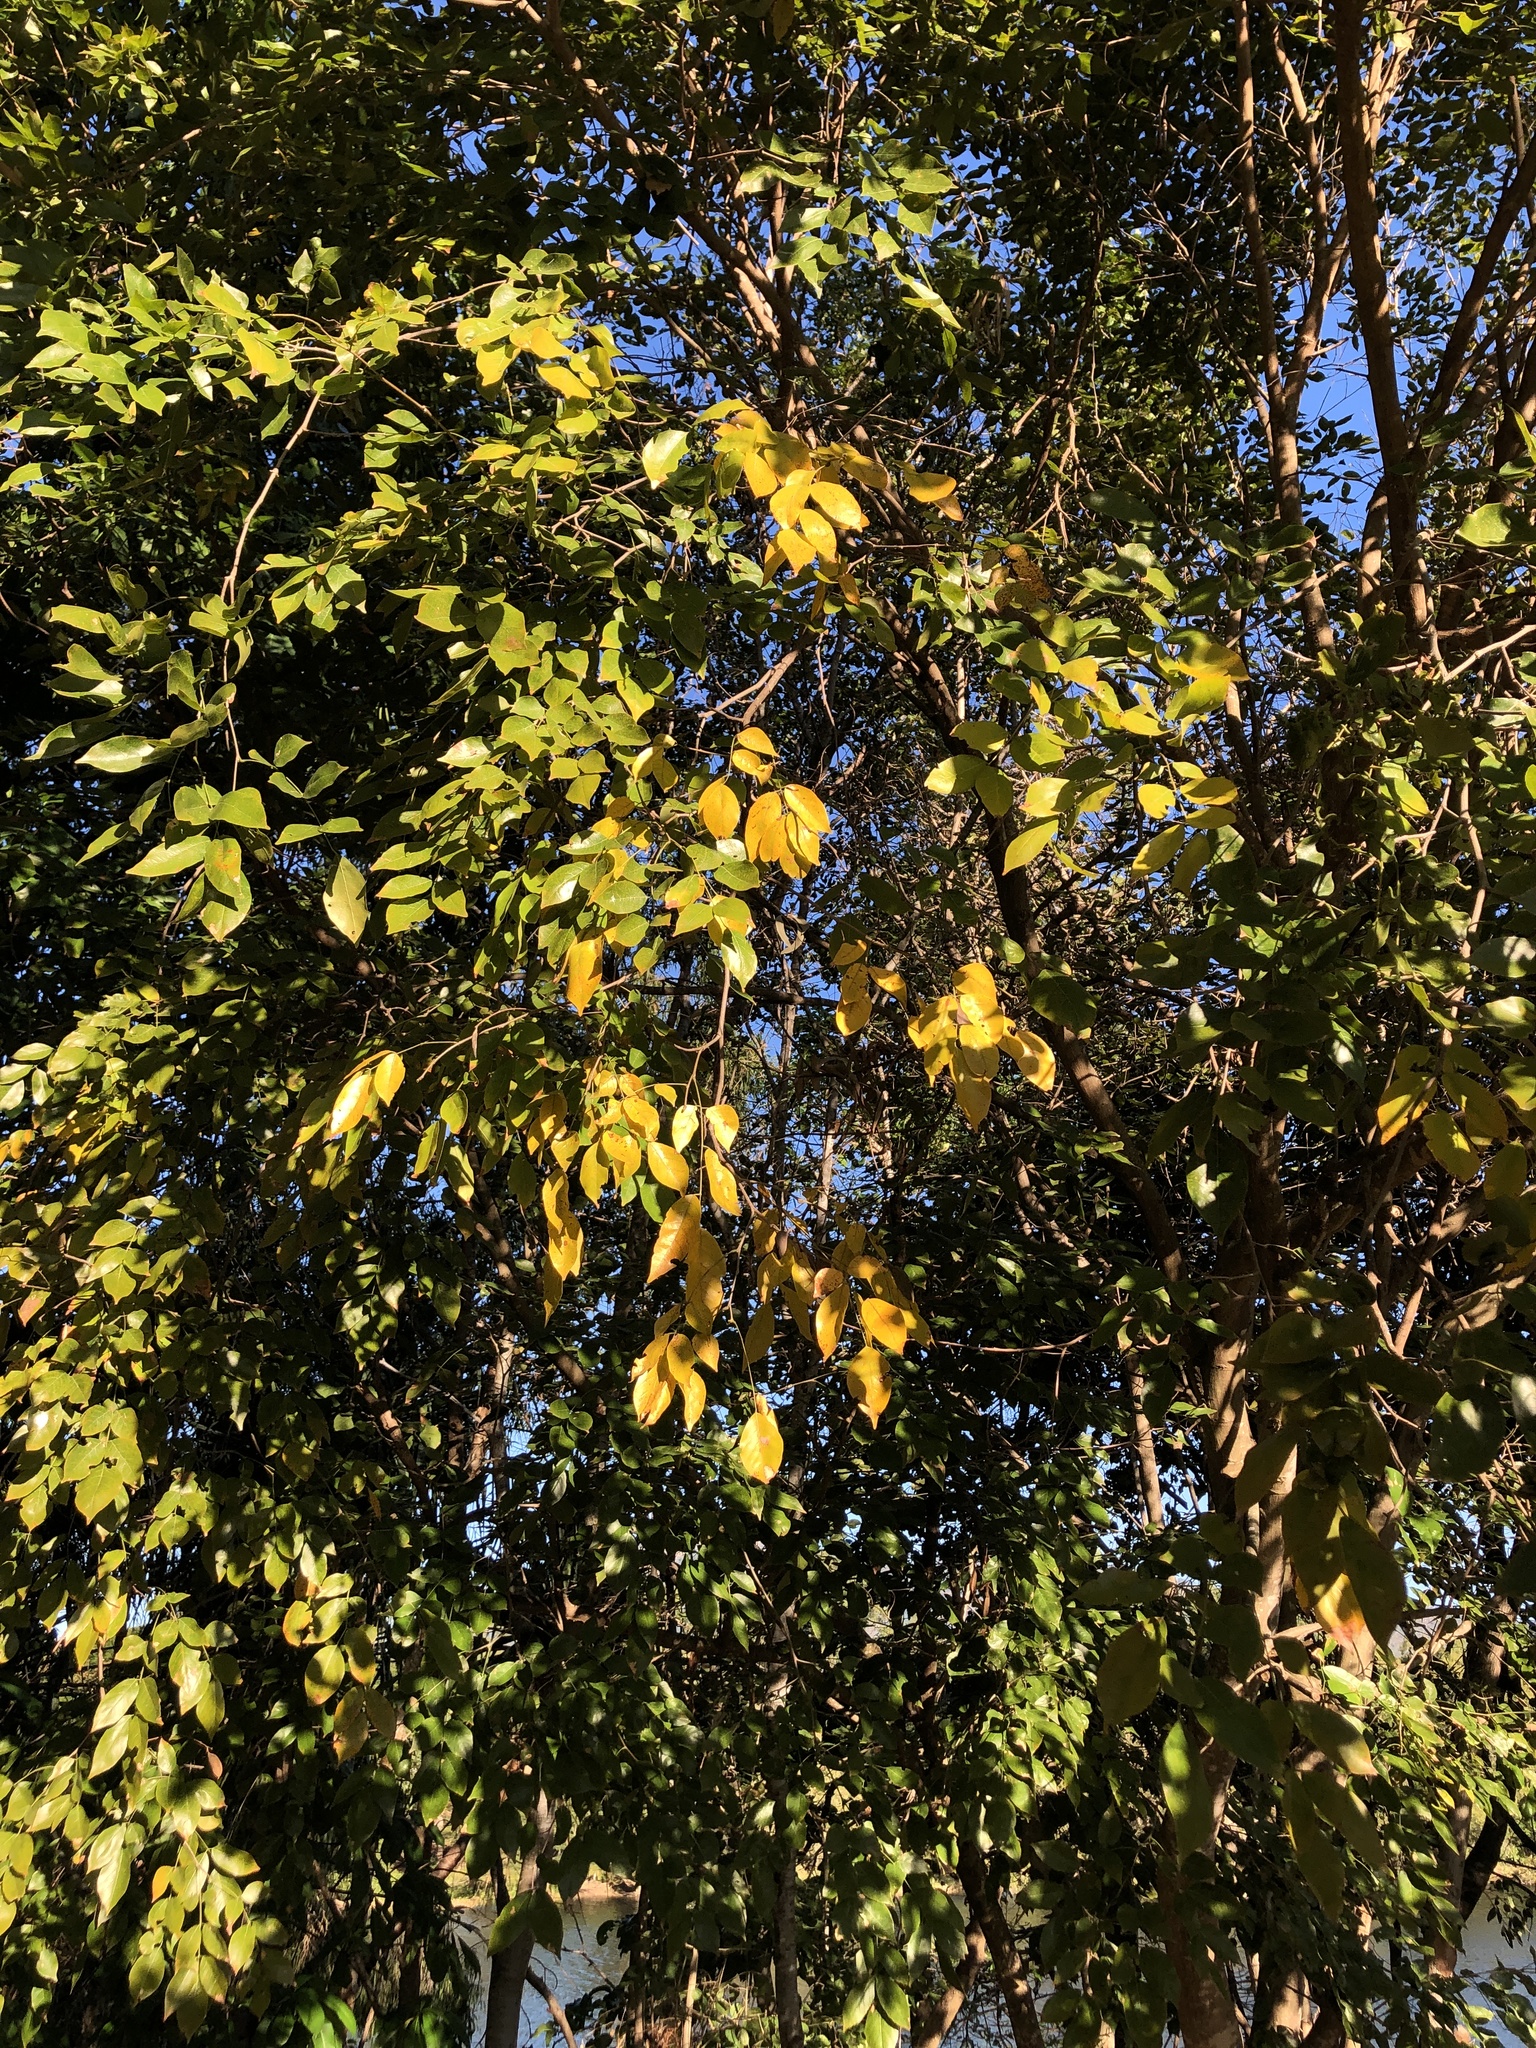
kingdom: Plantae
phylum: Tracheophyta
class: Magnoliopsida
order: Fabales
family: Fabaceae
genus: Pongamia
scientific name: Pongamia pinnata
